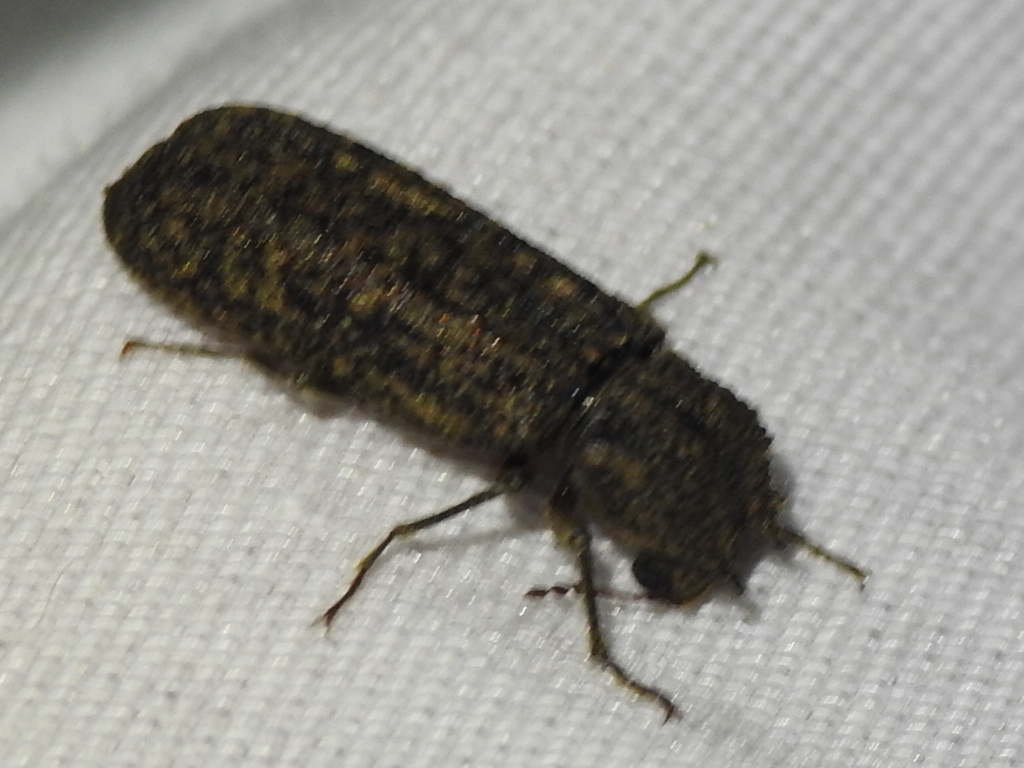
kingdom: Animalia
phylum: Arthropoda
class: Insecta
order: Coleoptera
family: Bostrichidae
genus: Lichenophanes
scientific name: Lichenophanes bicornis
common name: Two-horned powder-post beetle
